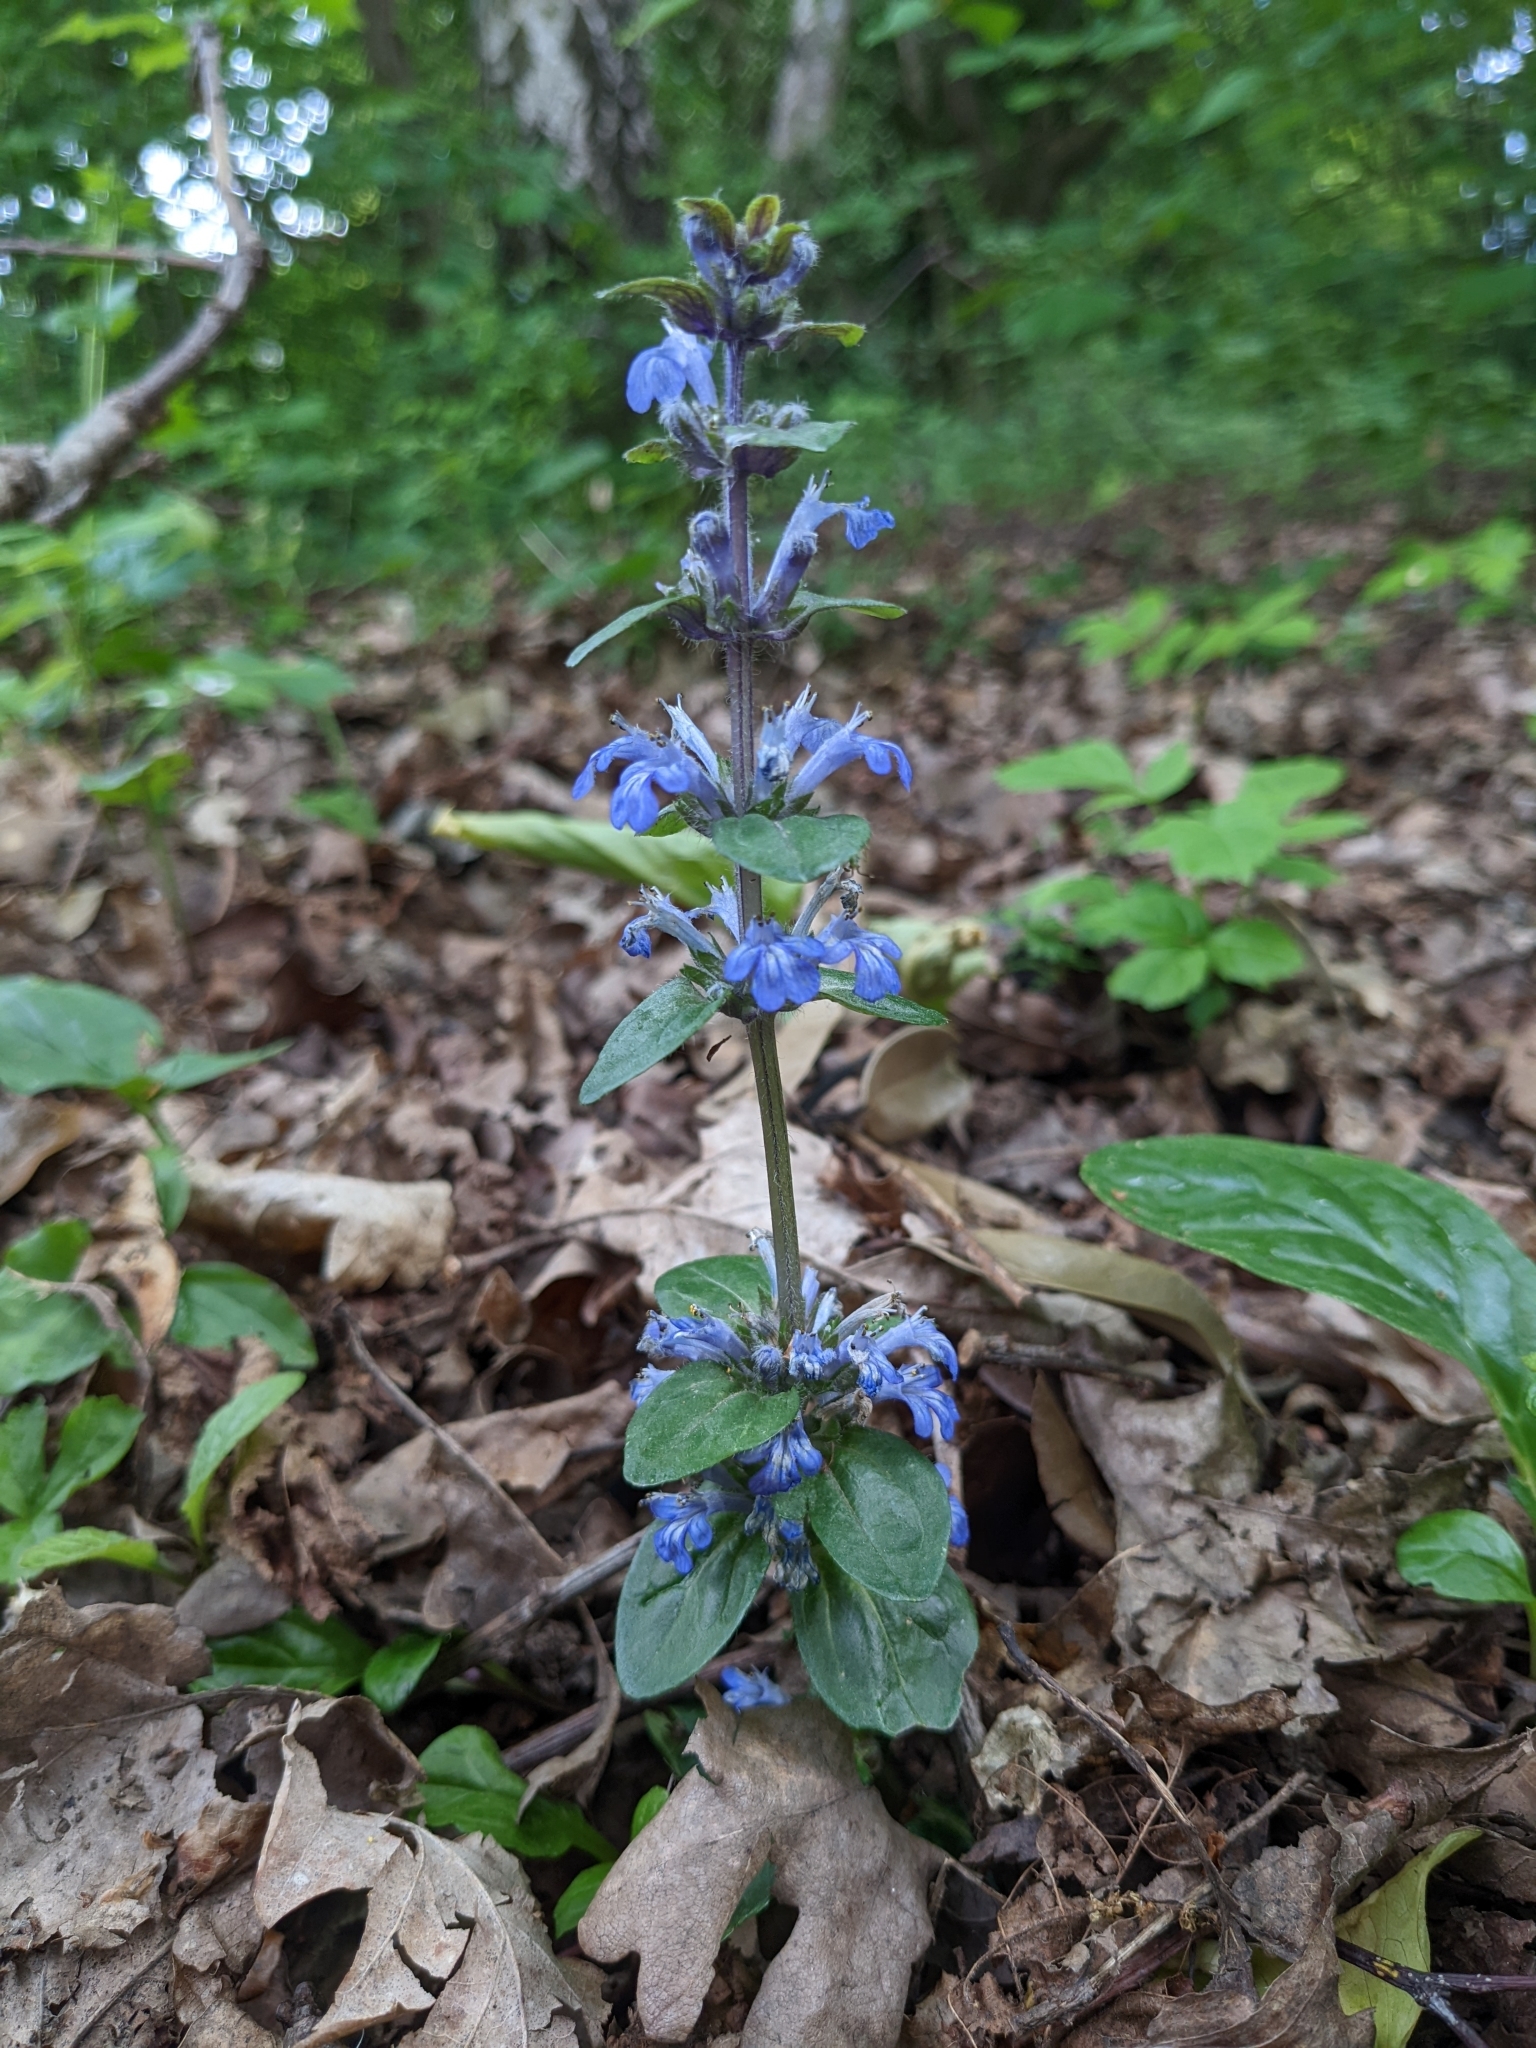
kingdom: Plantae
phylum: Tracheophyta
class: Magnoliopsida
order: Lamiales
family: Lamiaceae
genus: Ajuga
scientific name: Ajuga reptans
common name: Bugle
